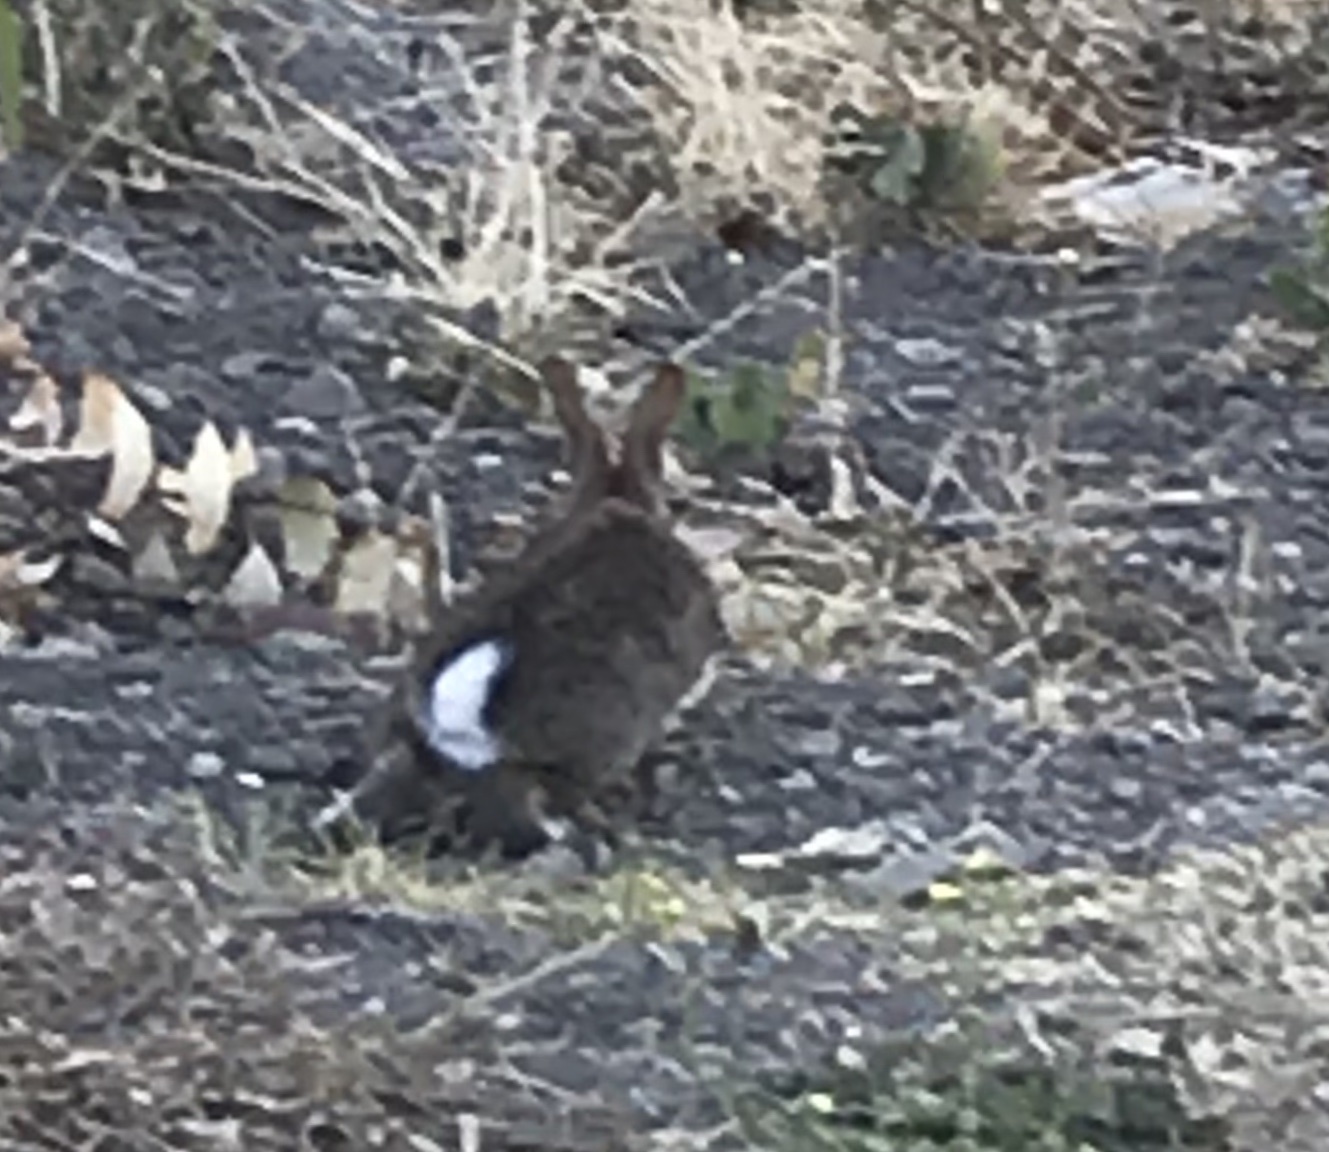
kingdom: Animalia
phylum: Chordata
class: Mammalia
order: Lagomorpha
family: Leporidae
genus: Sylvilagus
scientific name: Sylvilagus bachmani
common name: Brush rabbit
